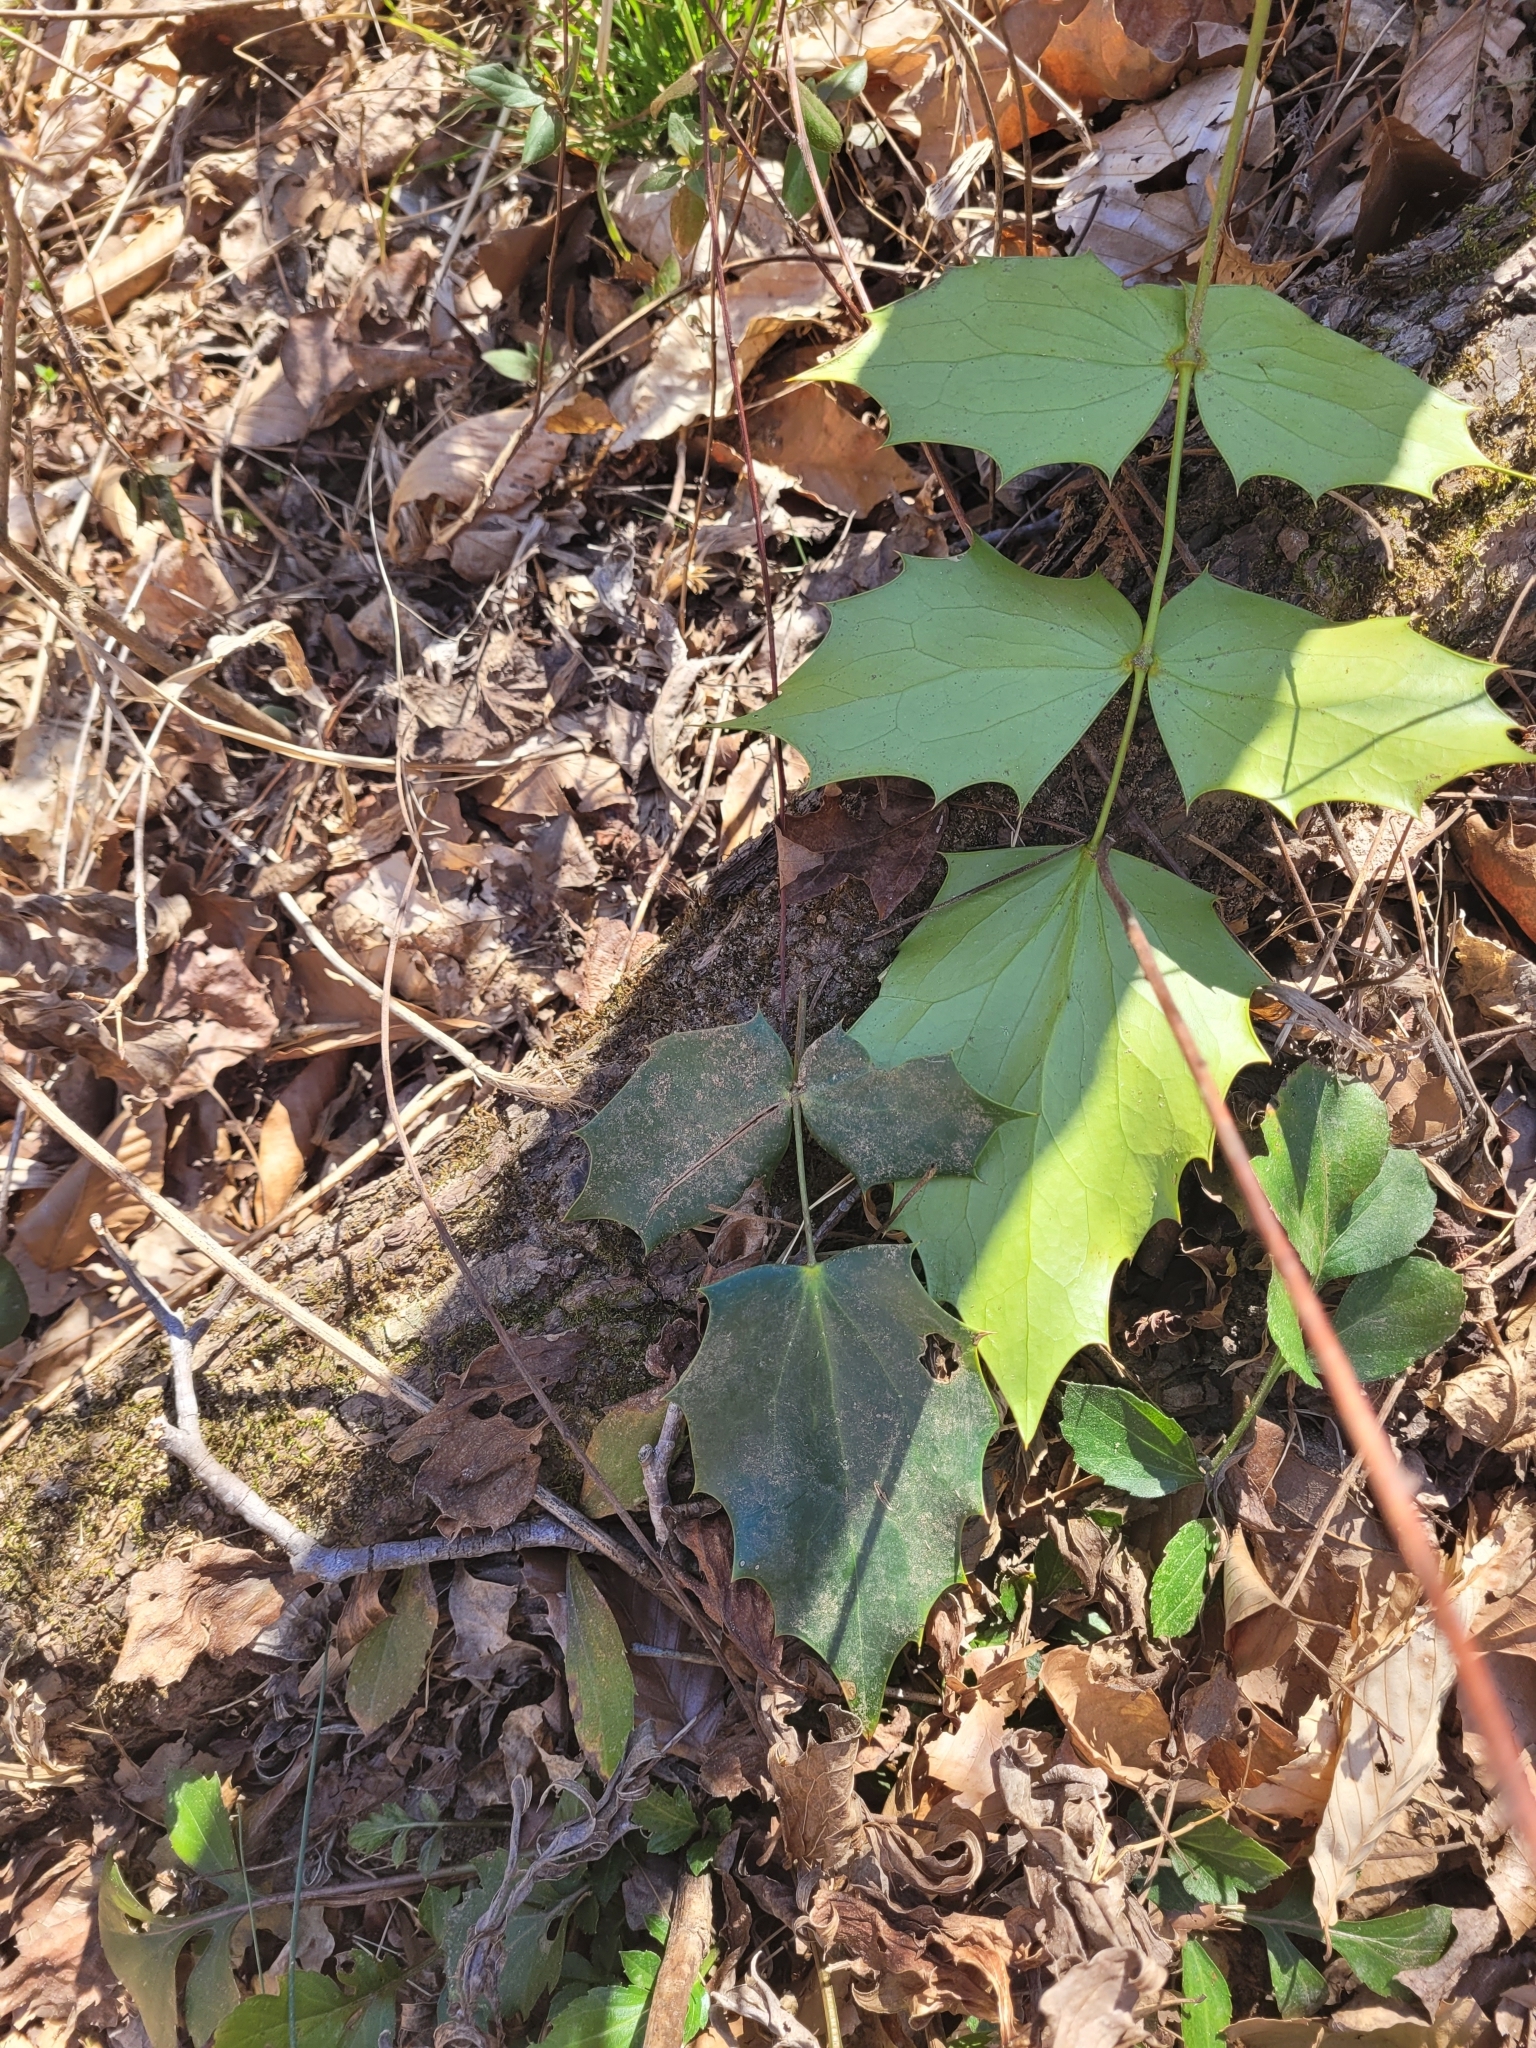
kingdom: Plantae
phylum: Tracheophyta
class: Magnoliopsida
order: Ranunculales
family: Berberidaceae
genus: Mahonia
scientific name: Mahonia bealei
